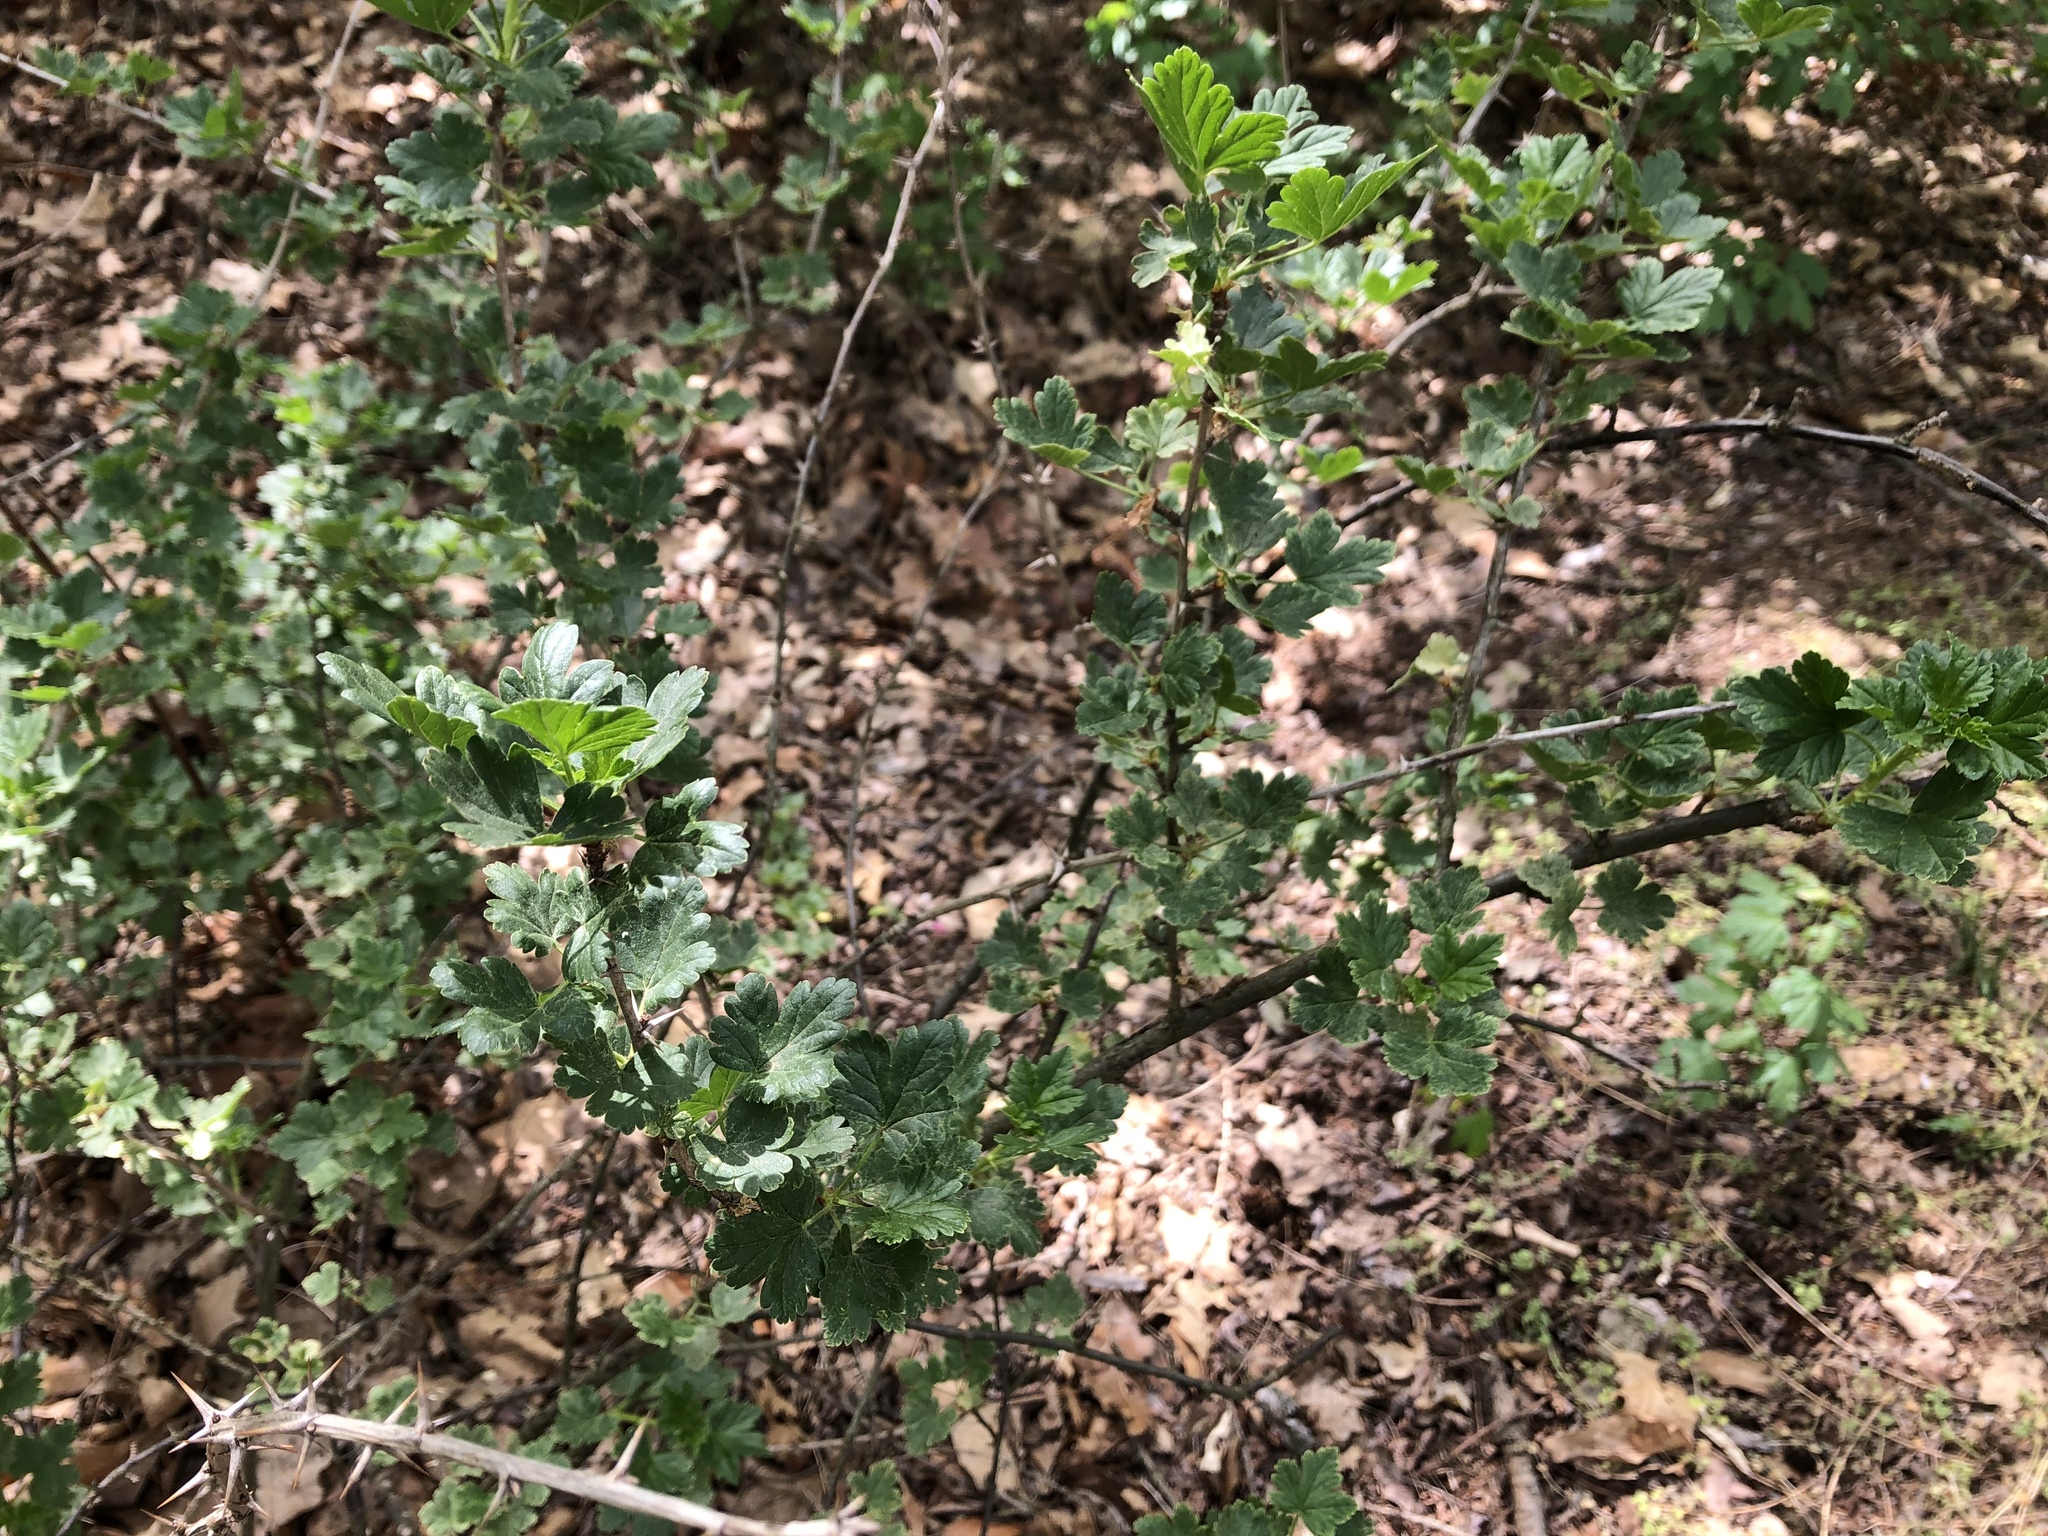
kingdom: Plantae
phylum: Tracheophyta
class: Magnoliopsida
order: Saxifragales
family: Grossulariaceae
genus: Ribes
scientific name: Ribes uva-crispa
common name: Gooseberry
